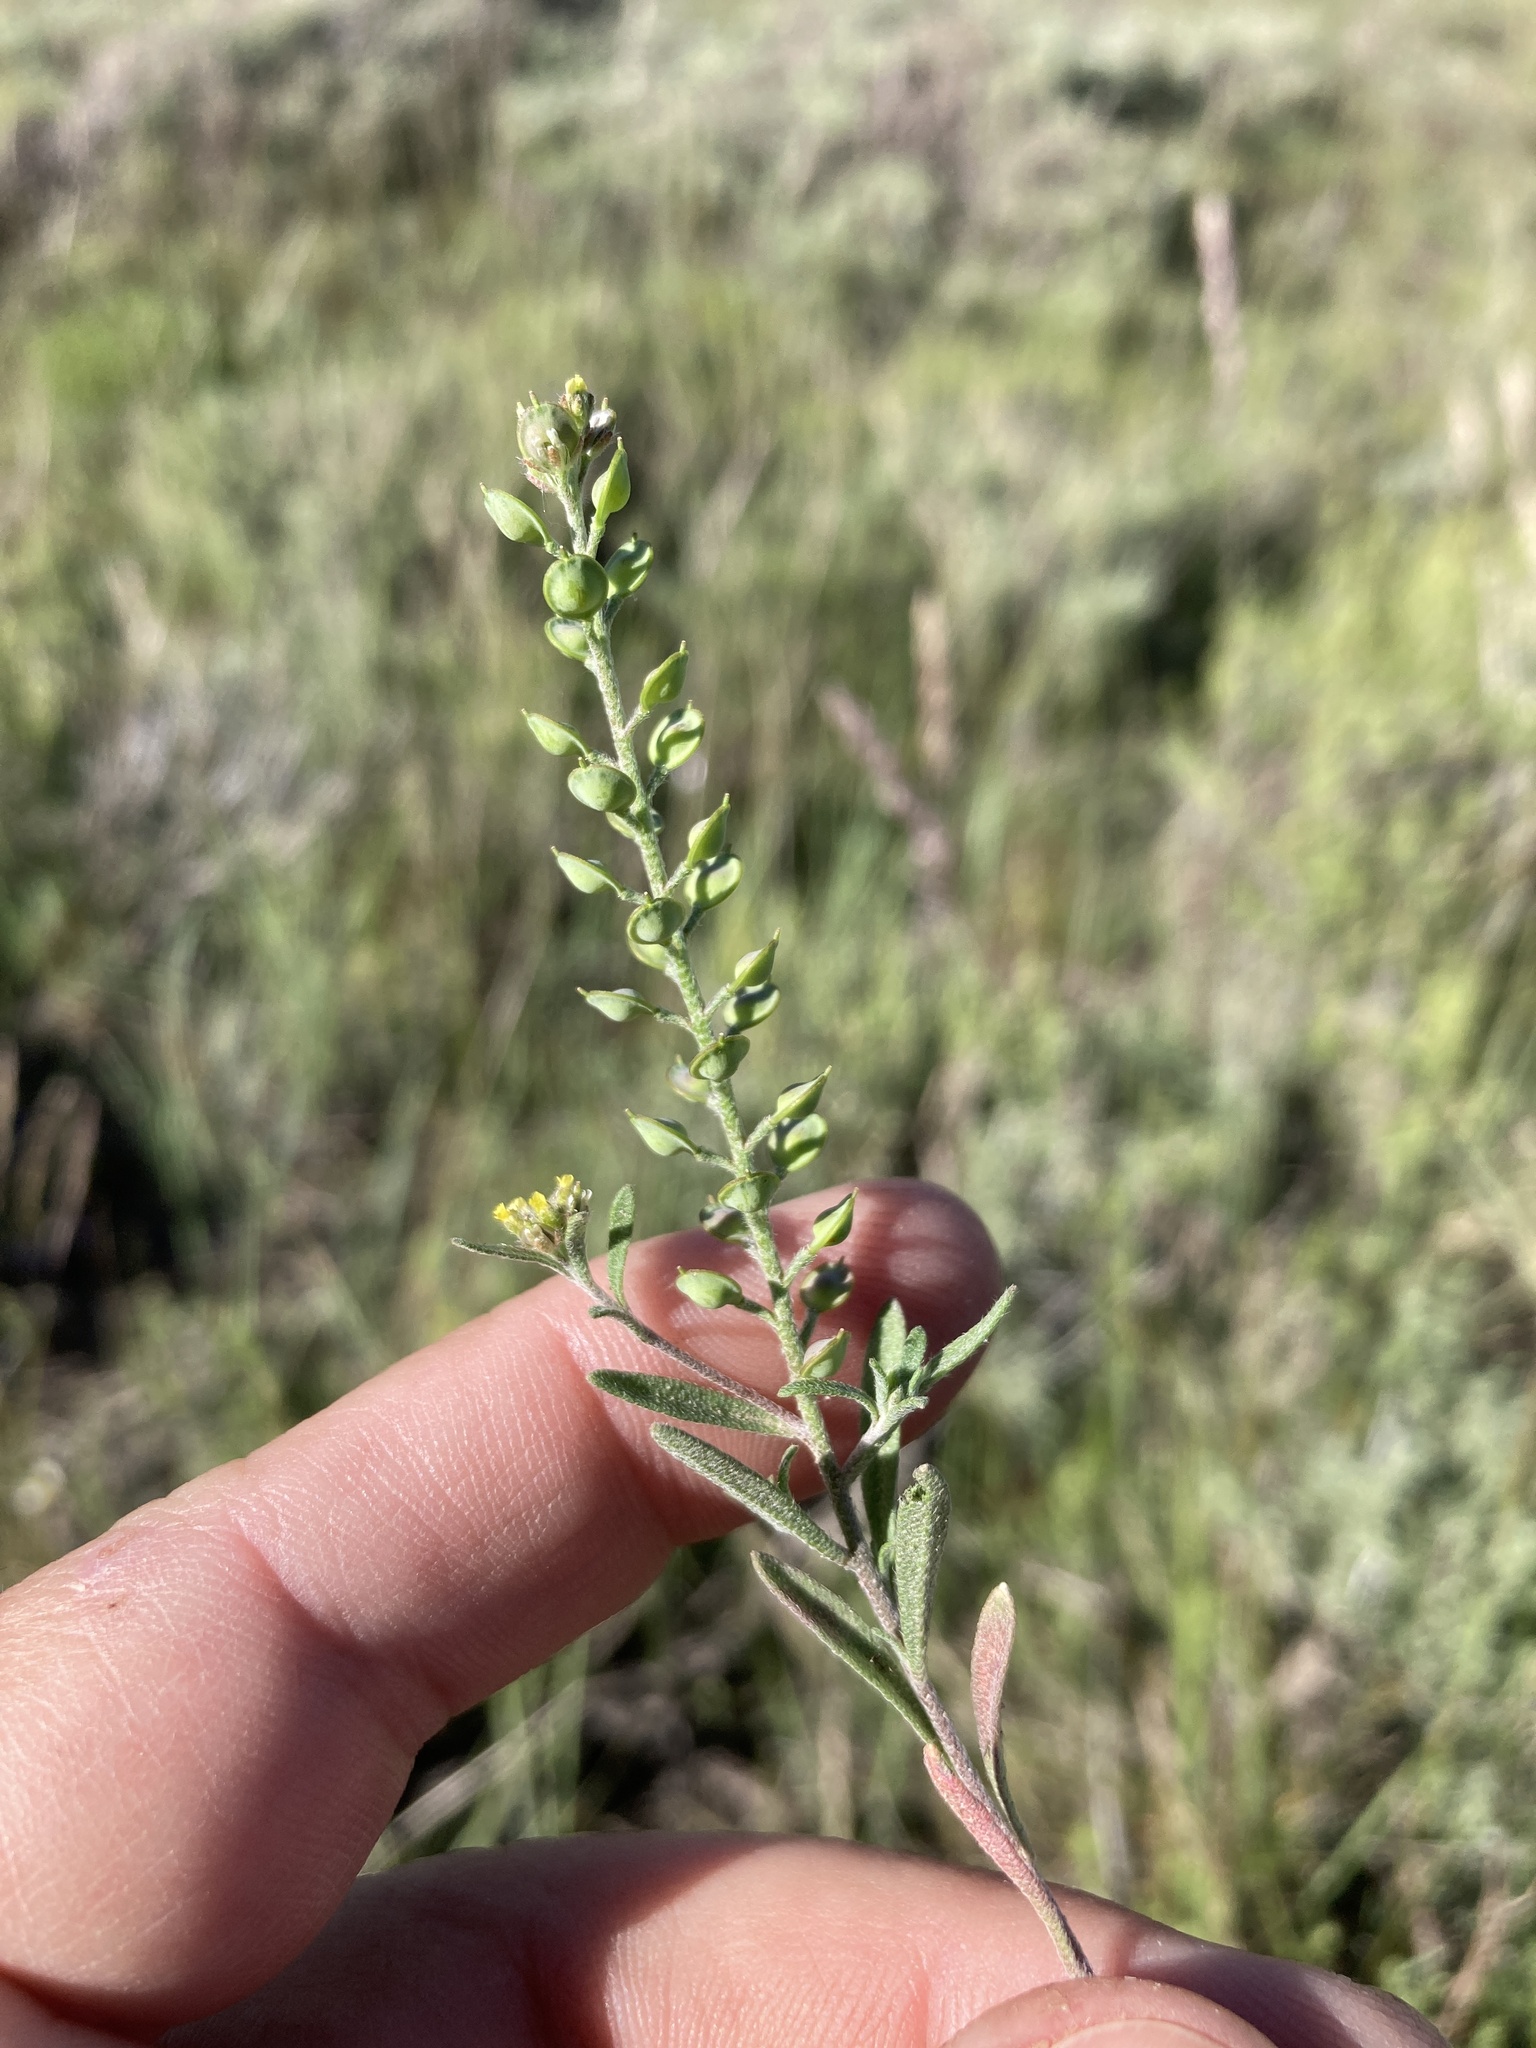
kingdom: Plantae
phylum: Tracheophyta
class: Magnoliopsida
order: Brassicales
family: Brassicaceae
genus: Alyssum
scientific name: Alyssum turkestanicum
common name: Desert alyssum
